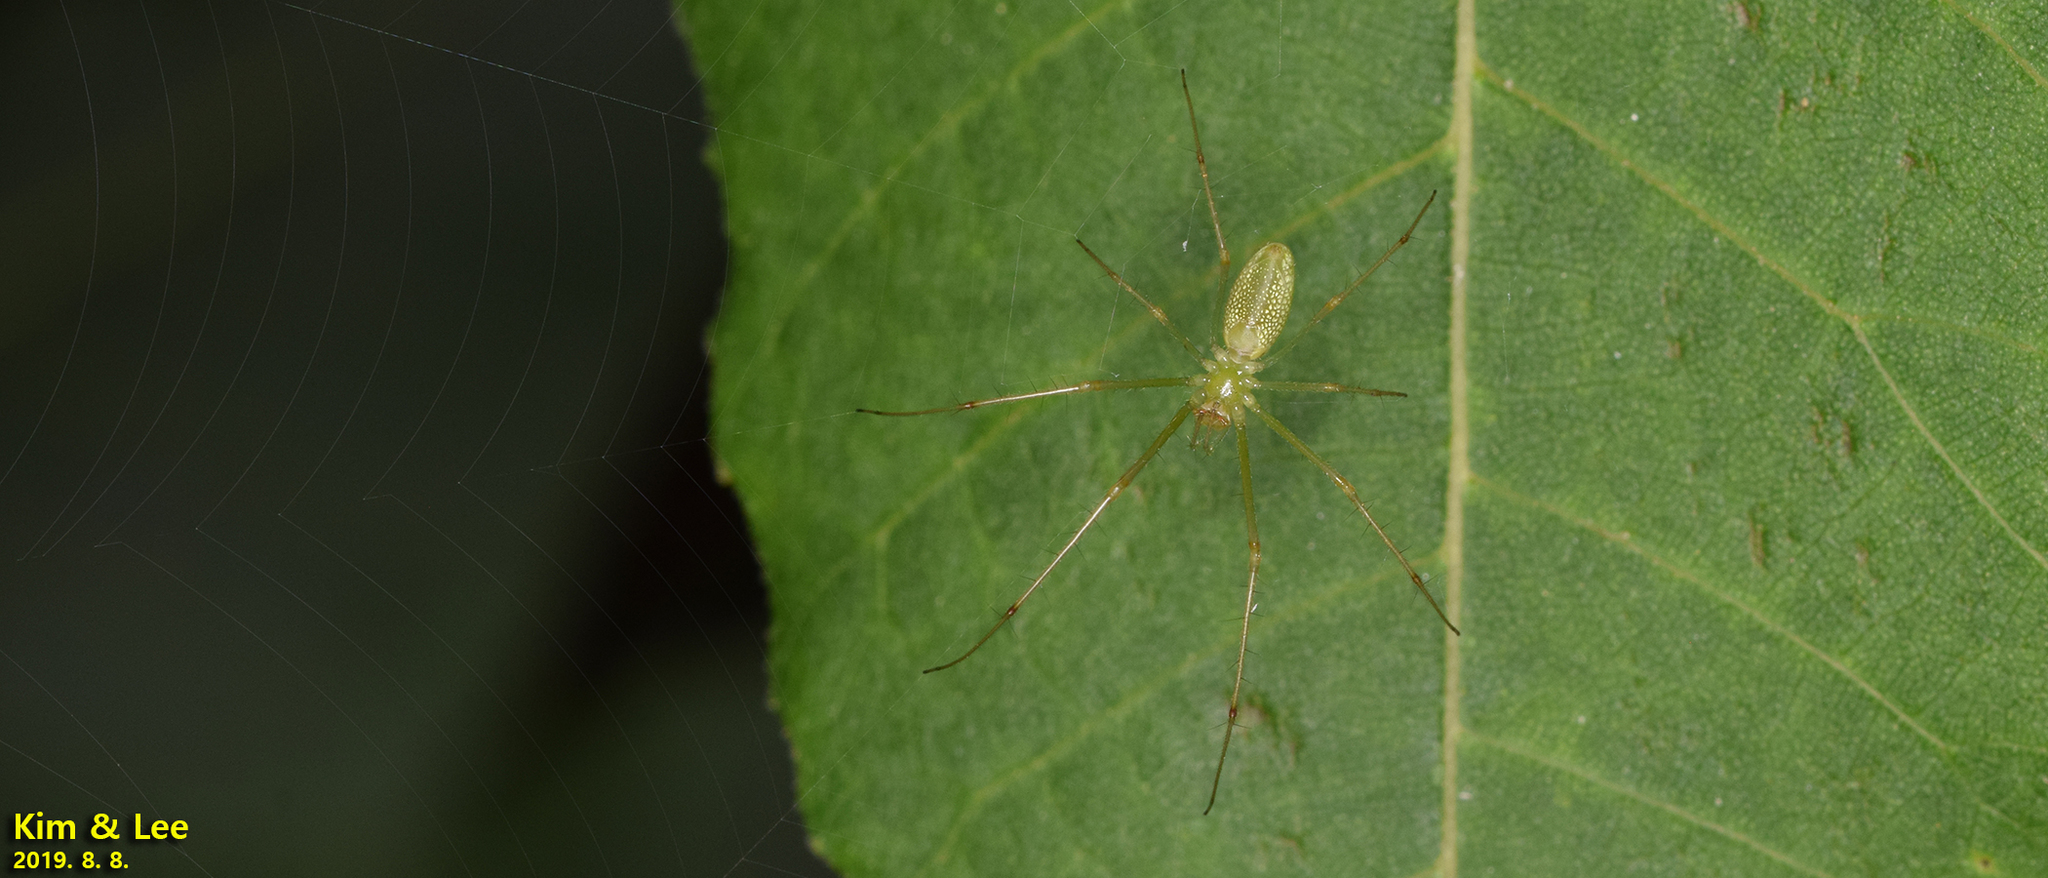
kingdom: Animalia
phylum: Arthropoda
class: Arachnida
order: Araneae
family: Tetragnathidae
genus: Tetragnatha
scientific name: Tetragnatha yesoensis
